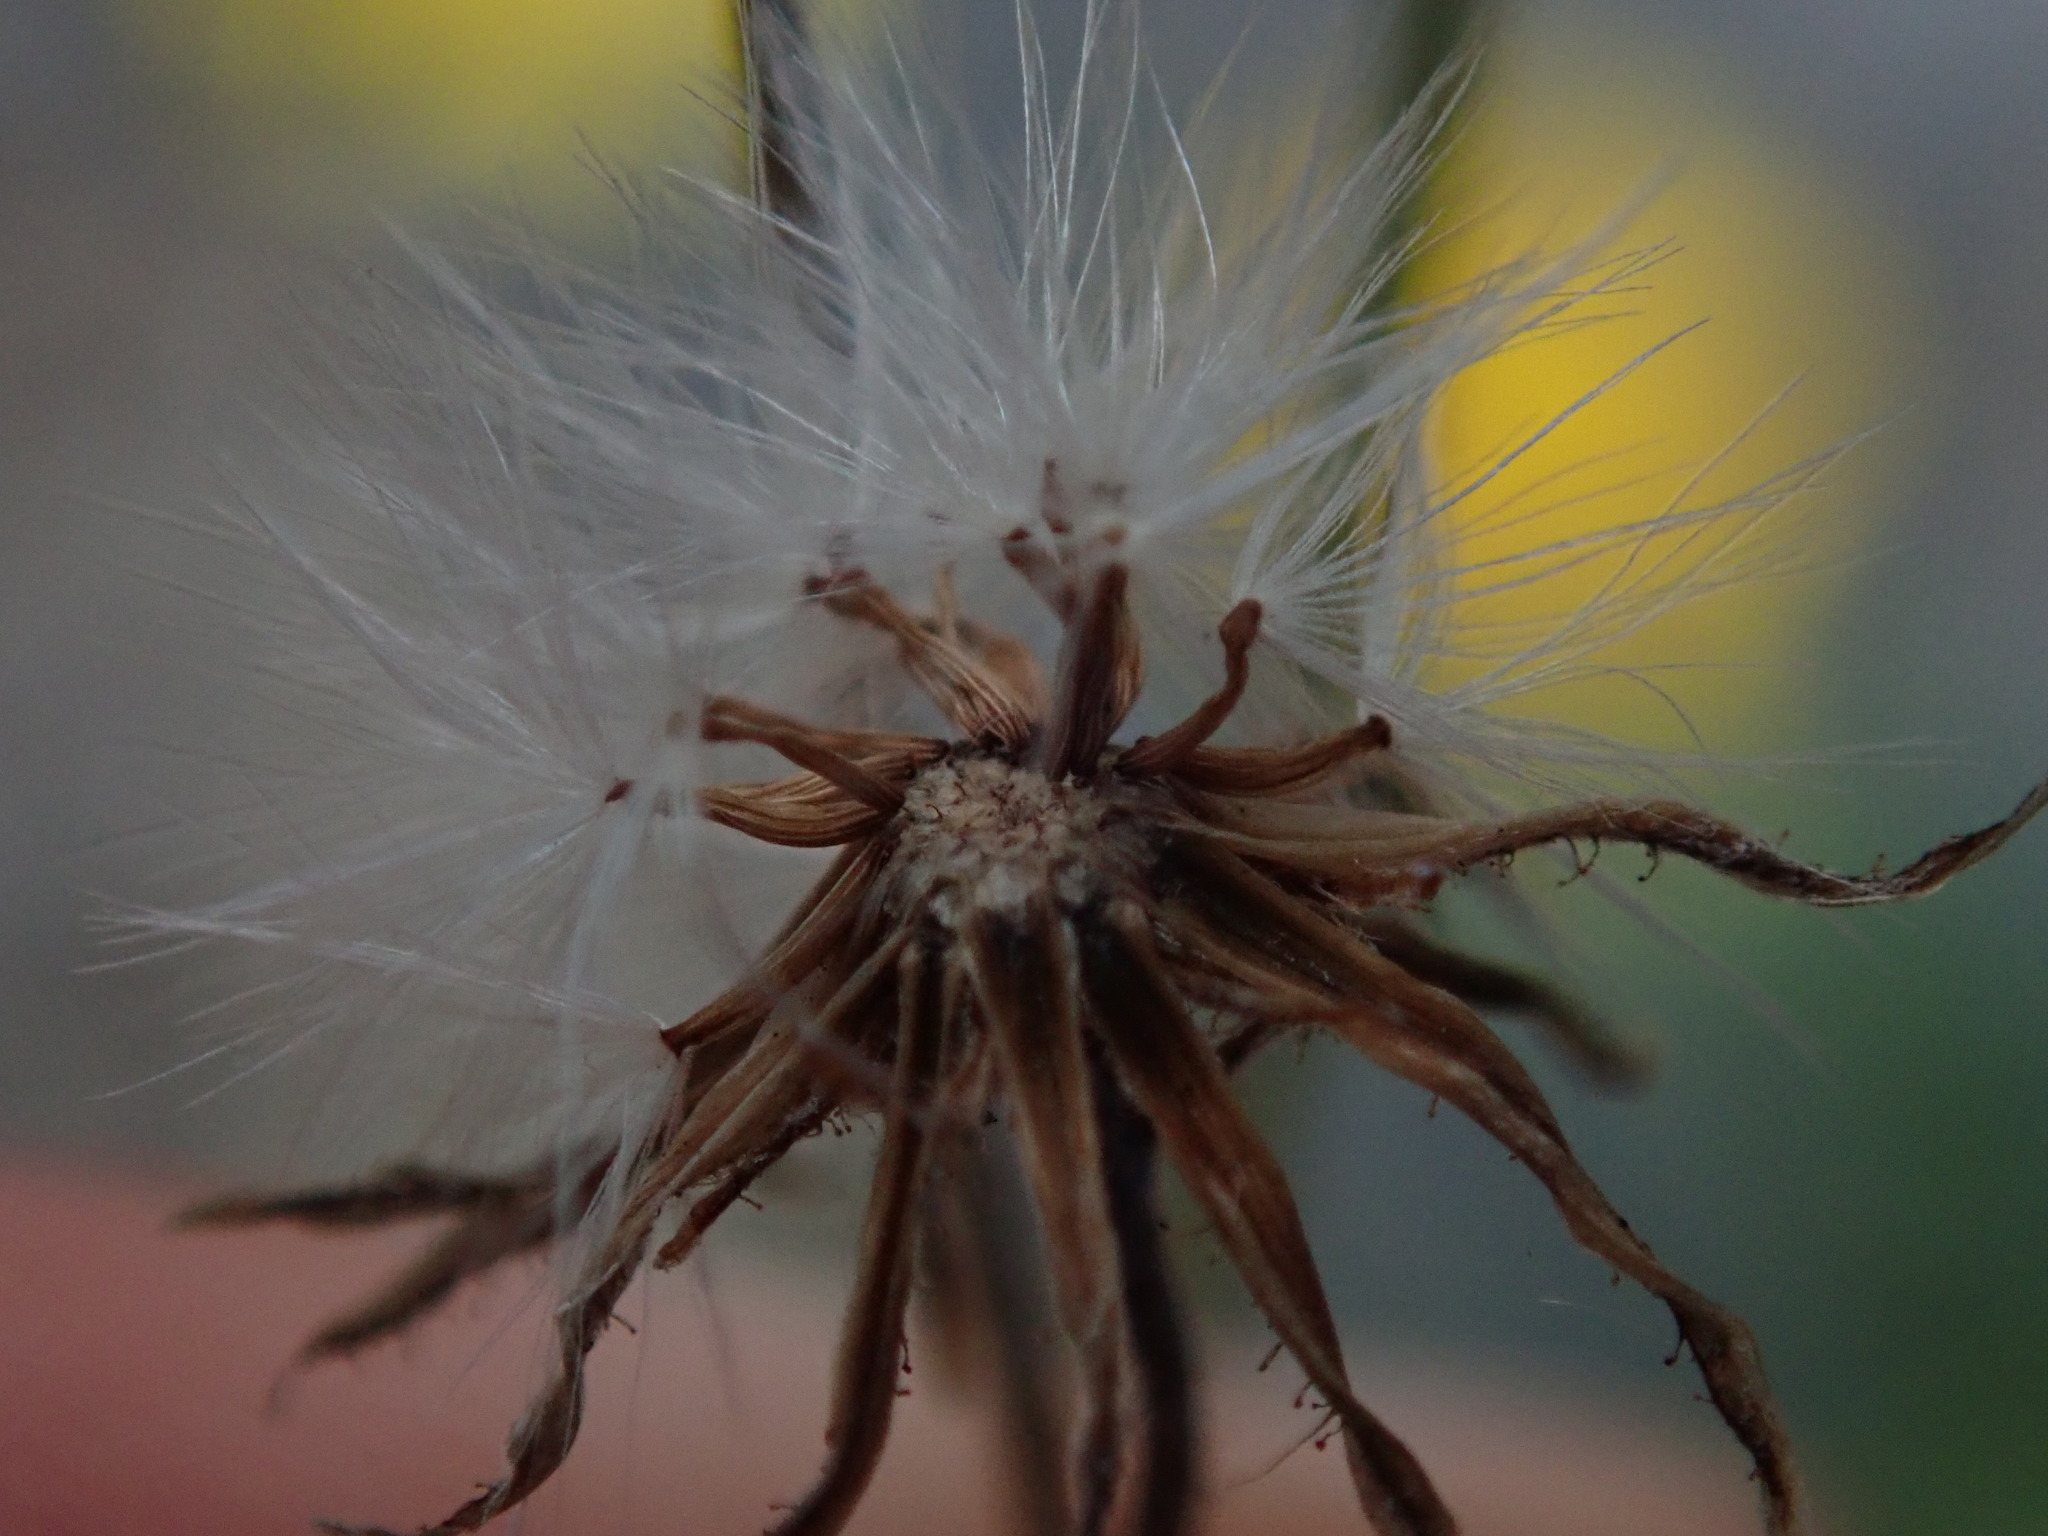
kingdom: Plantae
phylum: Tracheophyta
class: Magnoliopsida
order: Asterales
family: Asteraceae
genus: Crepis
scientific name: Crepis capillaris
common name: Smooth hawksbeard
